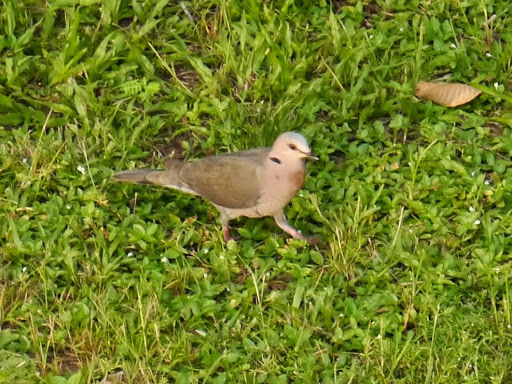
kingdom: Animalia
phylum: Chordata
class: Aves
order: Columbiformes
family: Columbidae
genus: Streptopelia
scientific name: Streptopelia semitorquata
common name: Red-eyed dove
